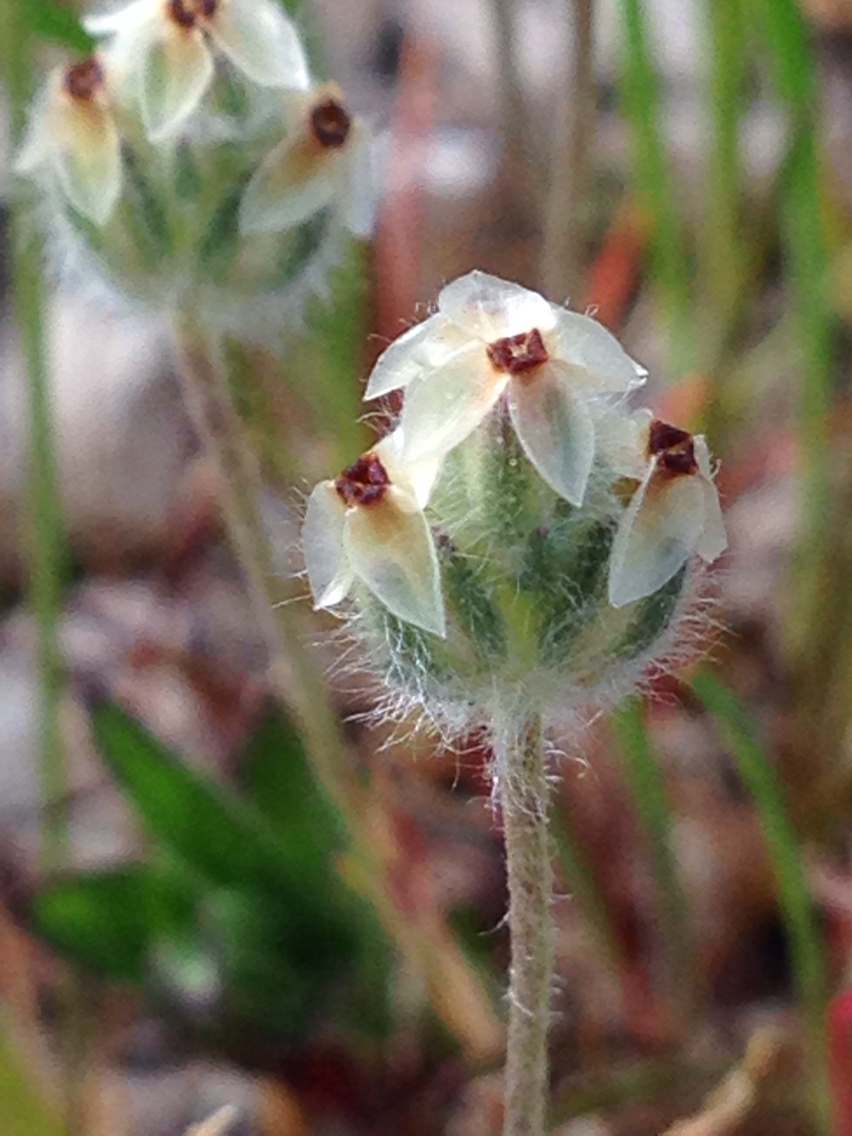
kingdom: Plantae
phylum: Tracheophyta
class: Magnoliopsida
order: Lamiales
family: Plantaginaceae
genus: Plantago
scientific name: Plantago erecta
